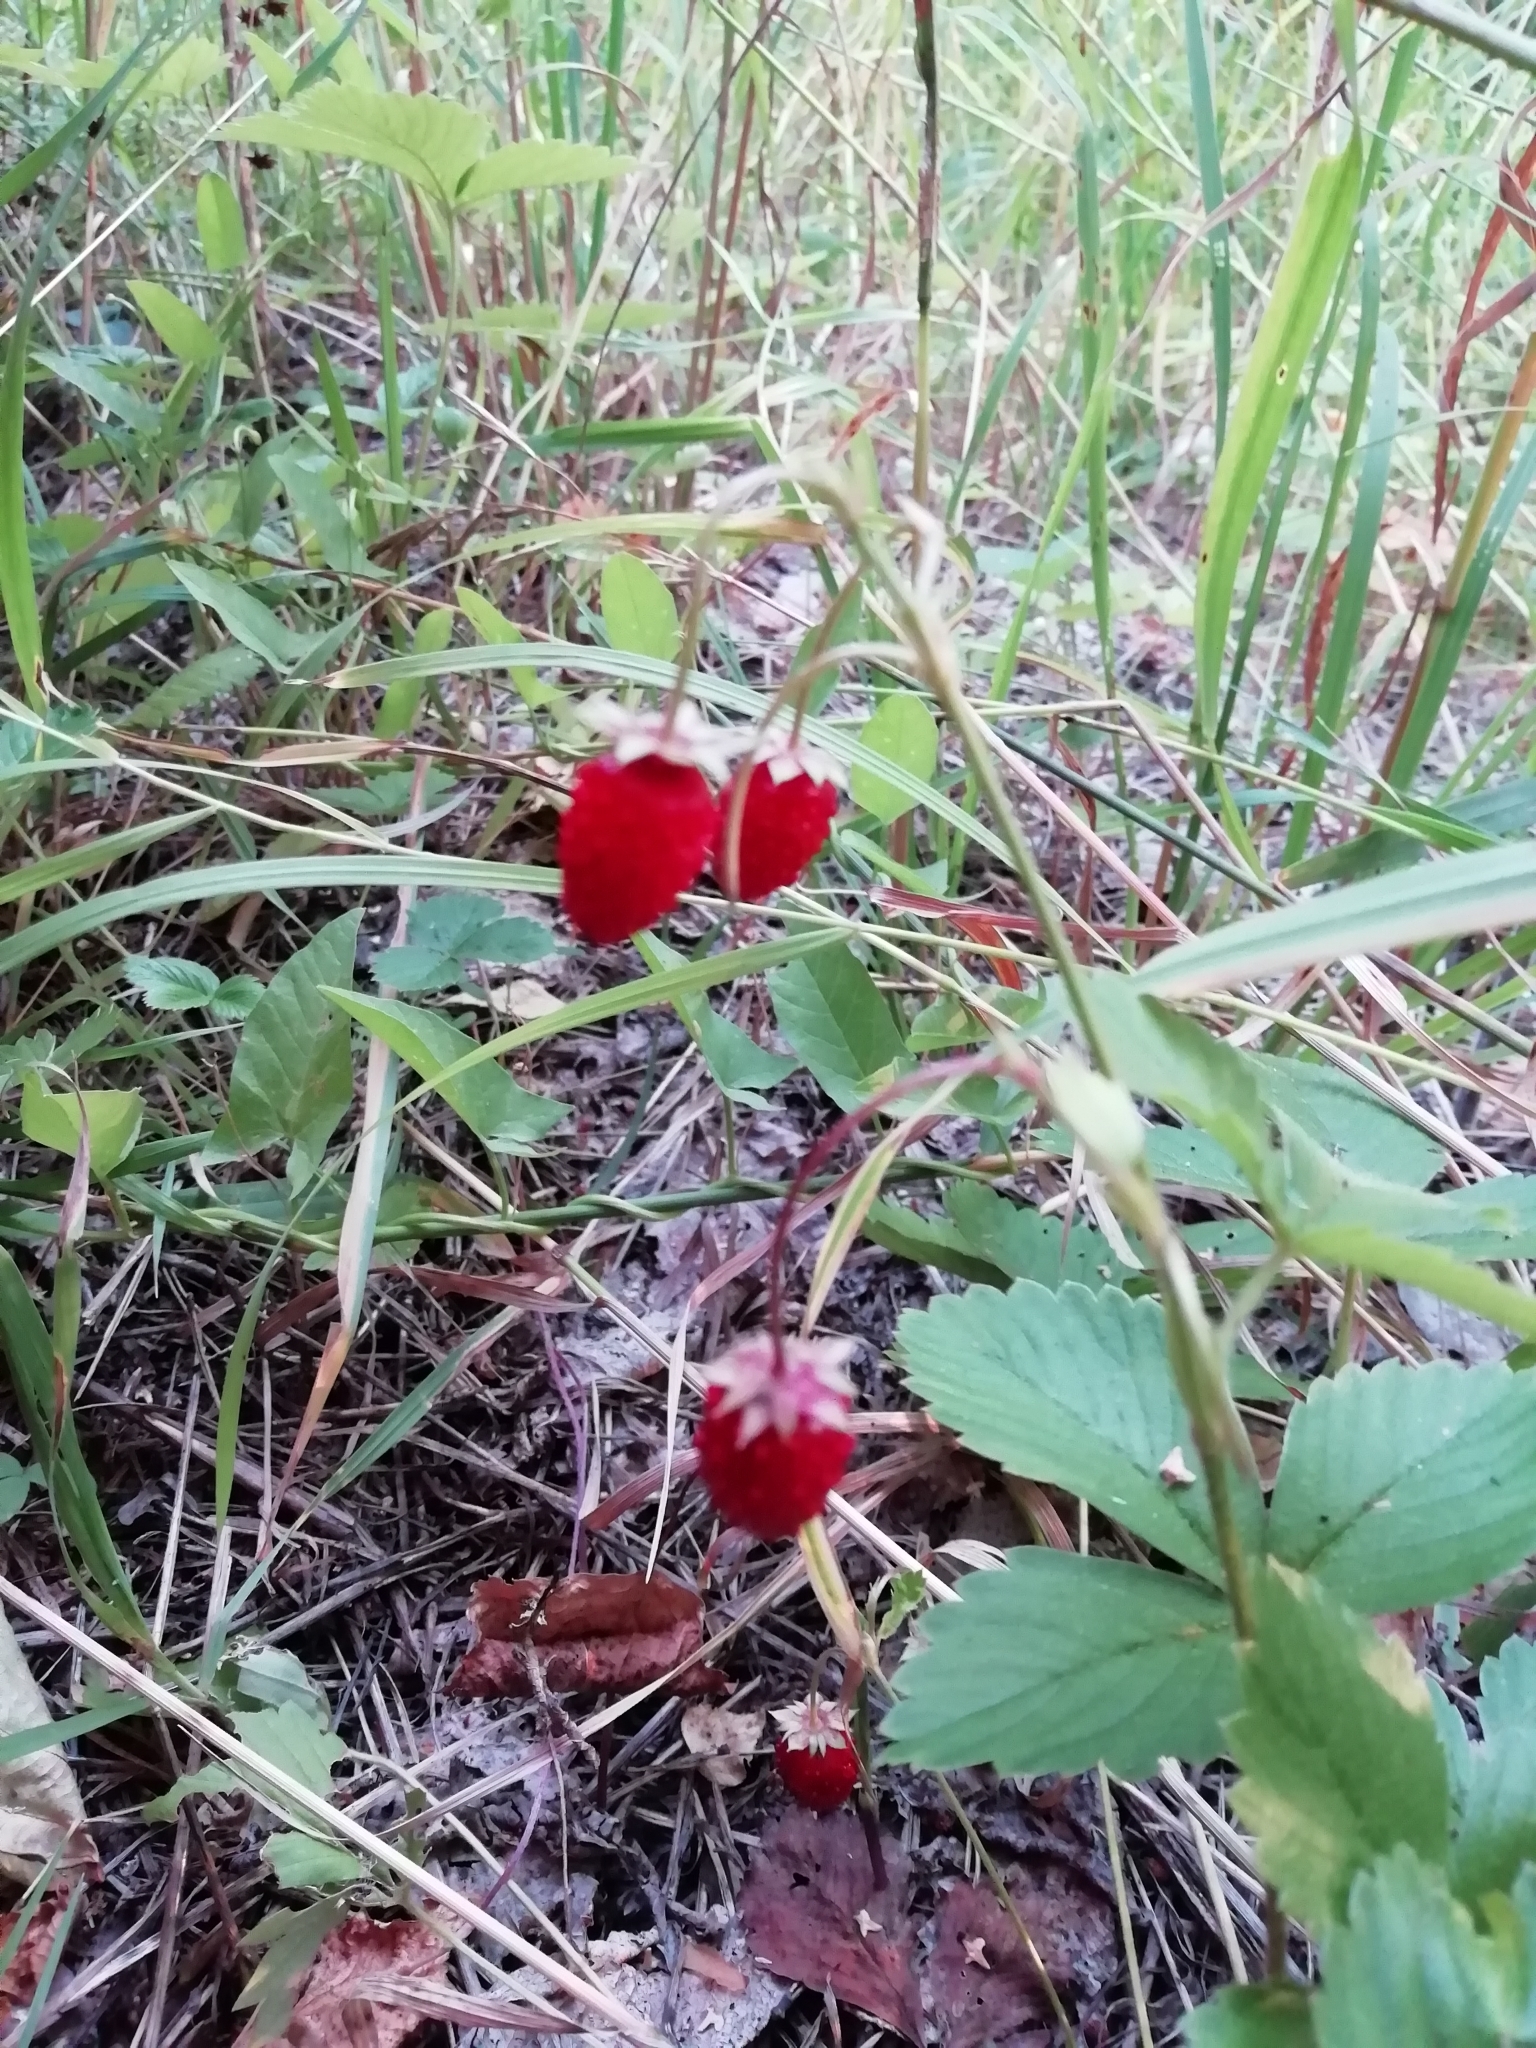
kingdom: Plantae
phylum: Tracheophyta
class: Magnoliopsida
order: Rosales
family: Rosaceae
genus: Fragaria
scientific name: Fragaria vesca
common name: Wild strawberry
